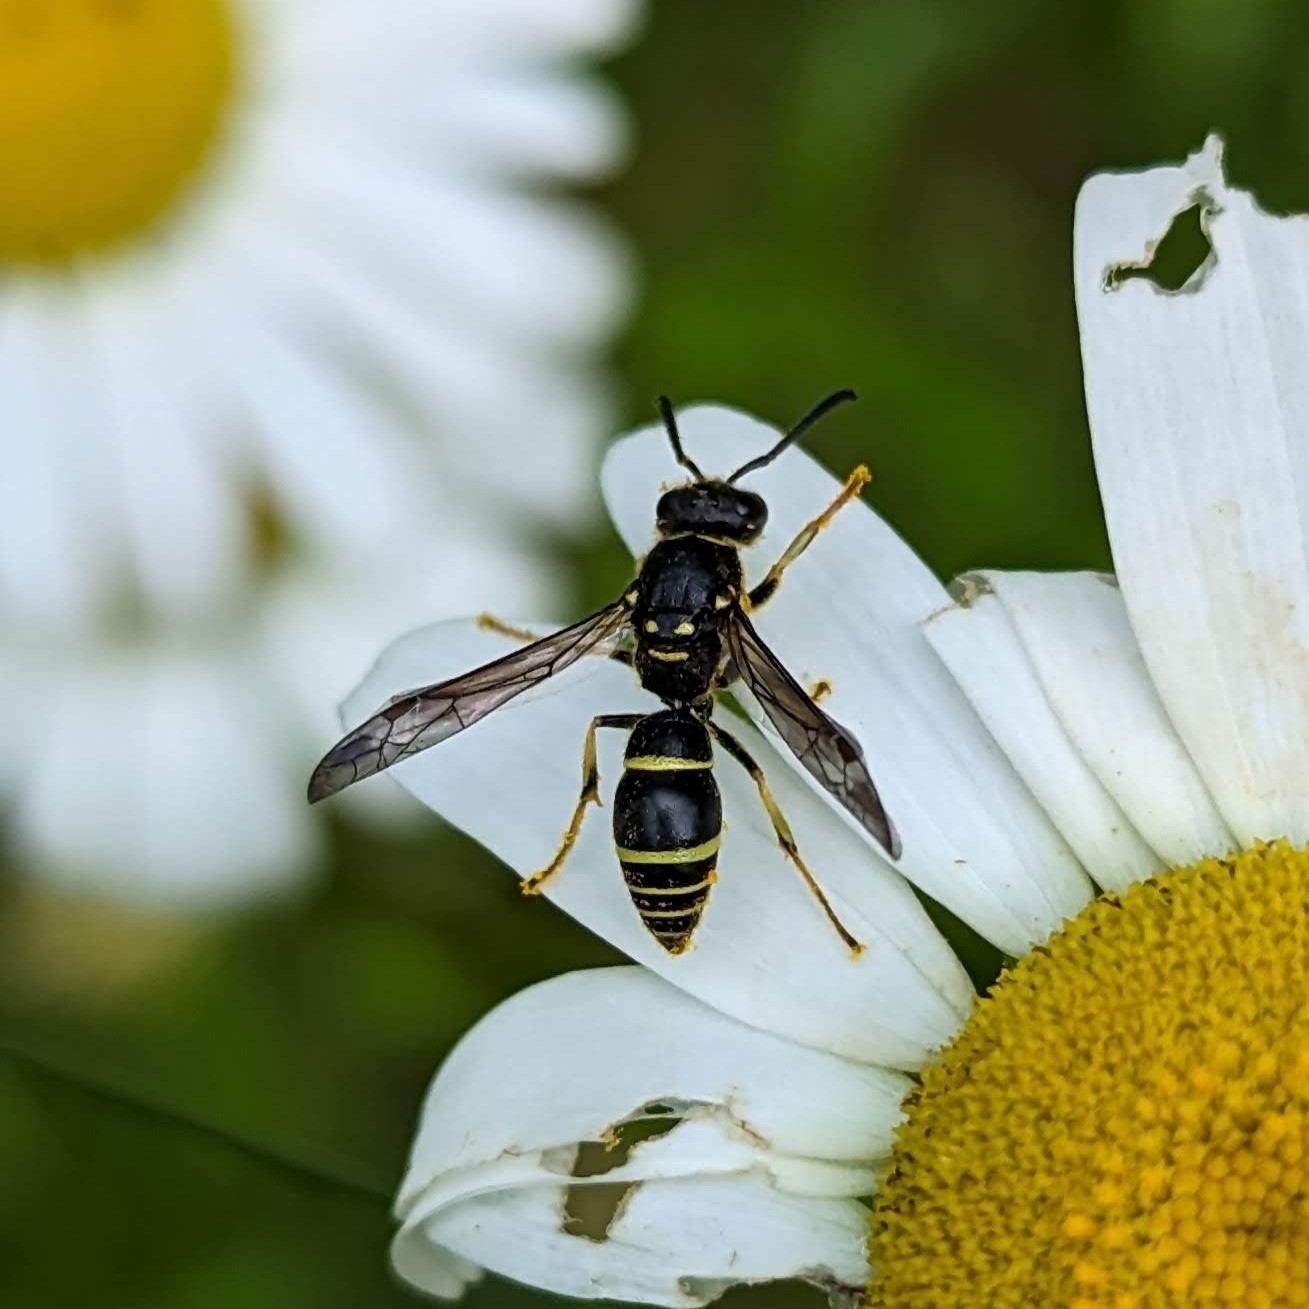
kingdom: Animalia
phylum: Arthropoda
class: Insecta
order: Hymenoptera
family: Vespidae
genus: Ancistrocerus
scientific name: Ancistrocerus adiabatus
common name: Bramble mason wasp
